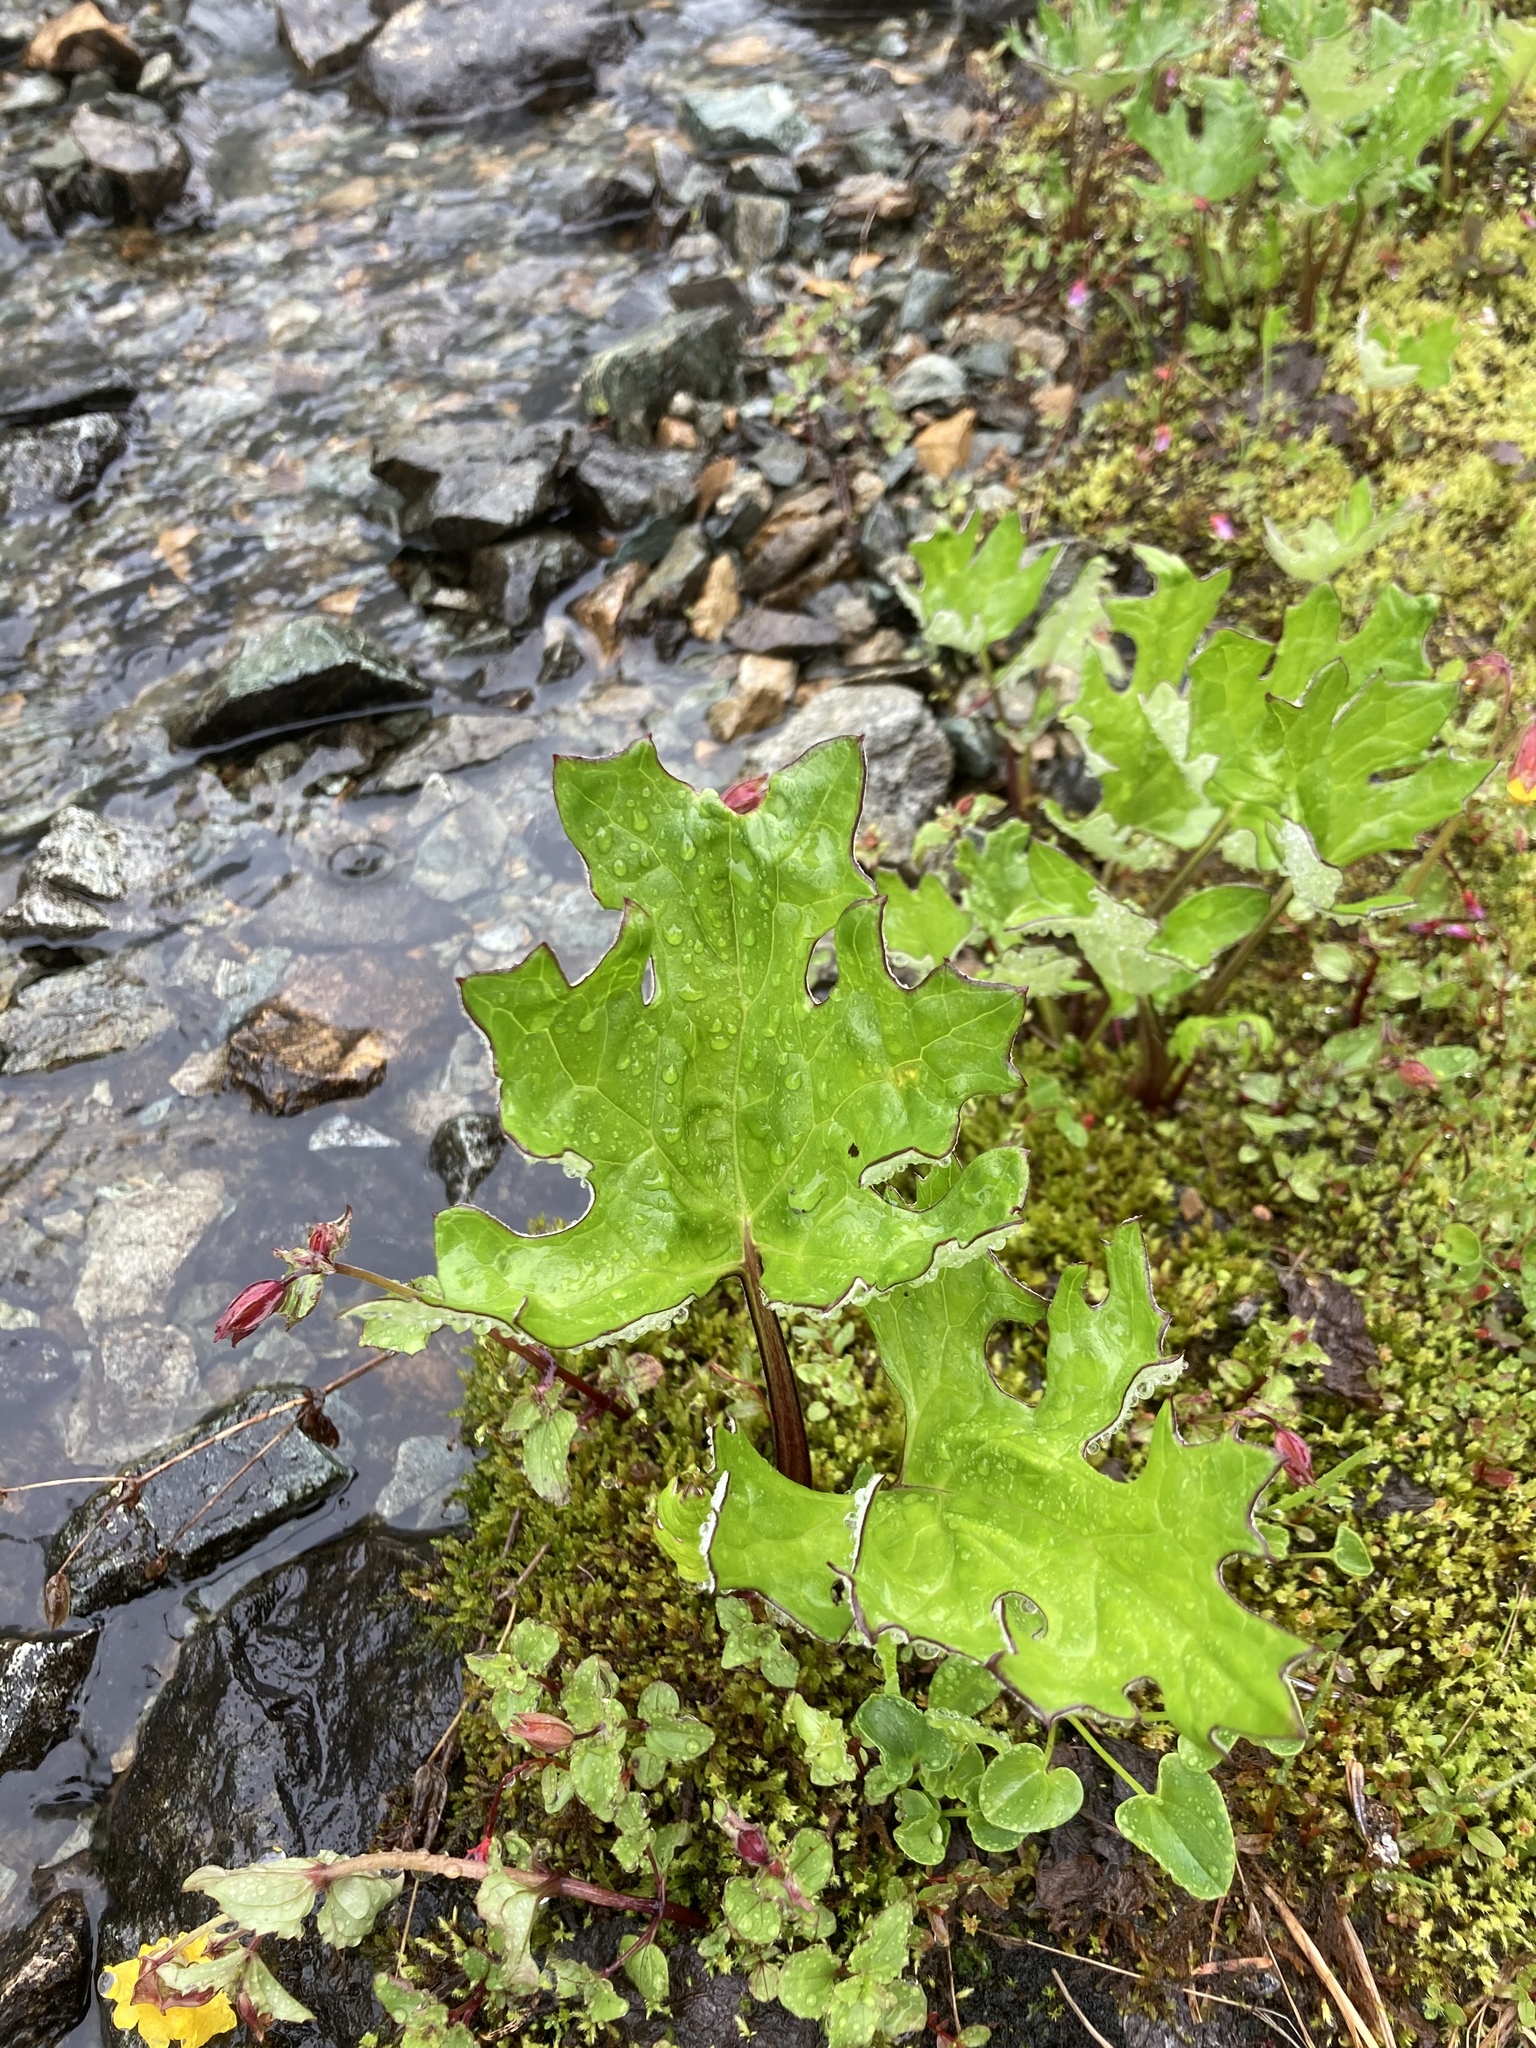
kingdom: Plantae
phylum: Tracheophyta
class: Magnoliopsida
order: Asterales
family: Asteraceae
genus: Petasites
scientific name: Petasites frigidus
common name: Arctic butterbur
